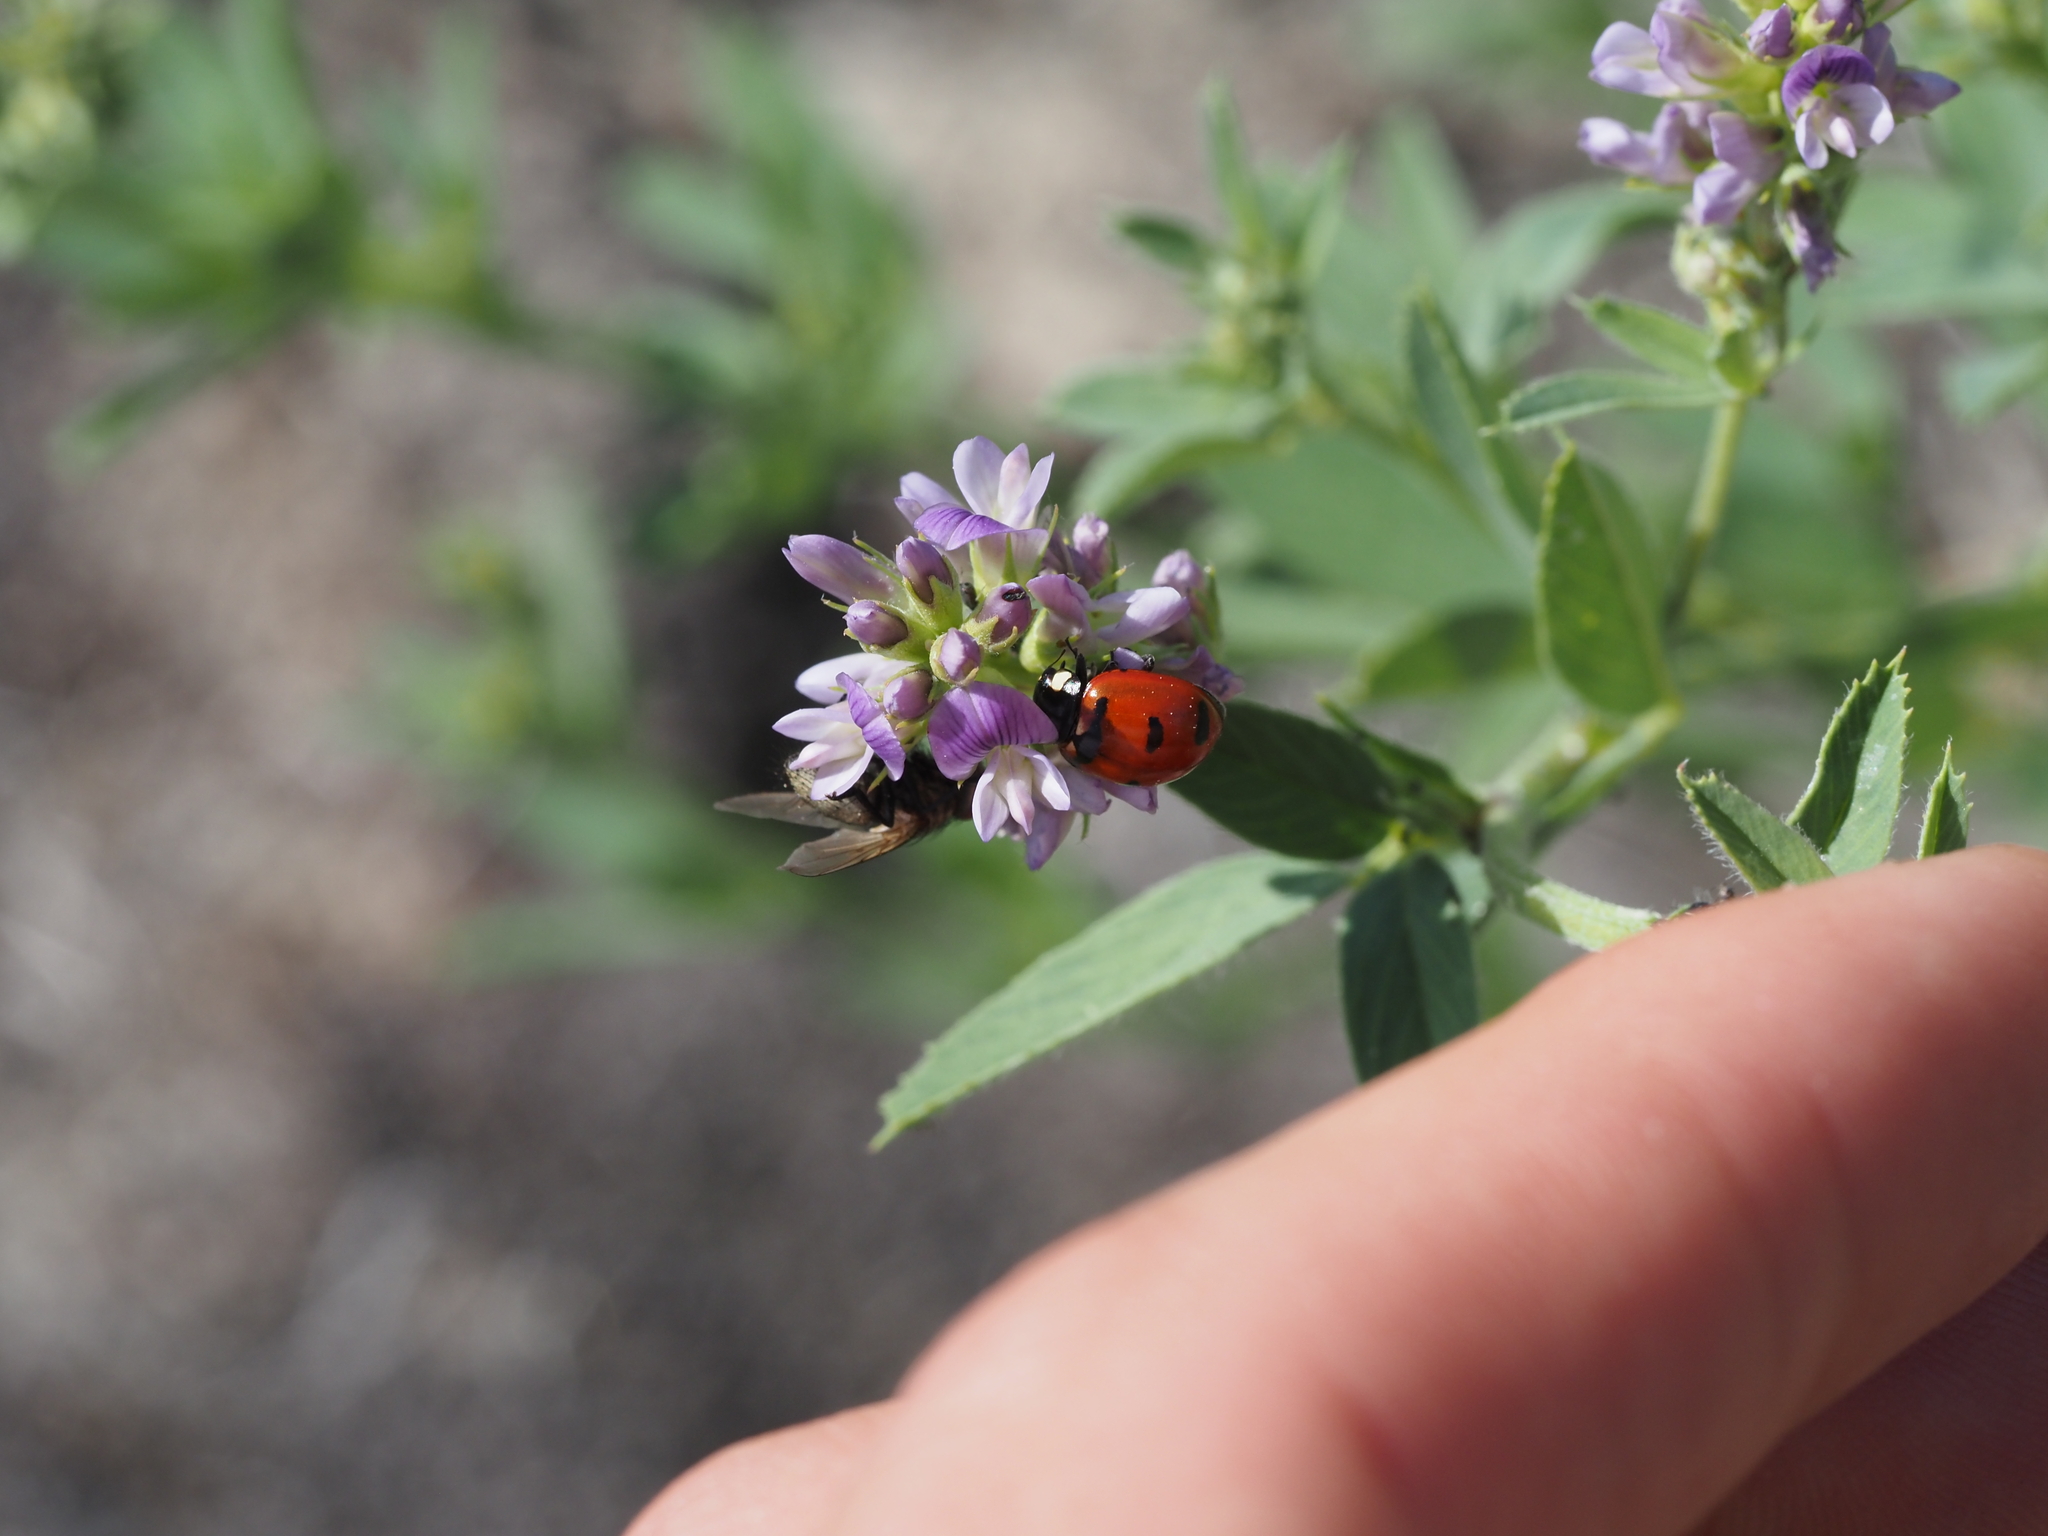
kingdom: Animalia
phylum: Arthropoda
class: Insecta
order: Coleoptera
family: Coccinellidae
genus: Coccinella
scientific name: Coccinella transversoguttata
